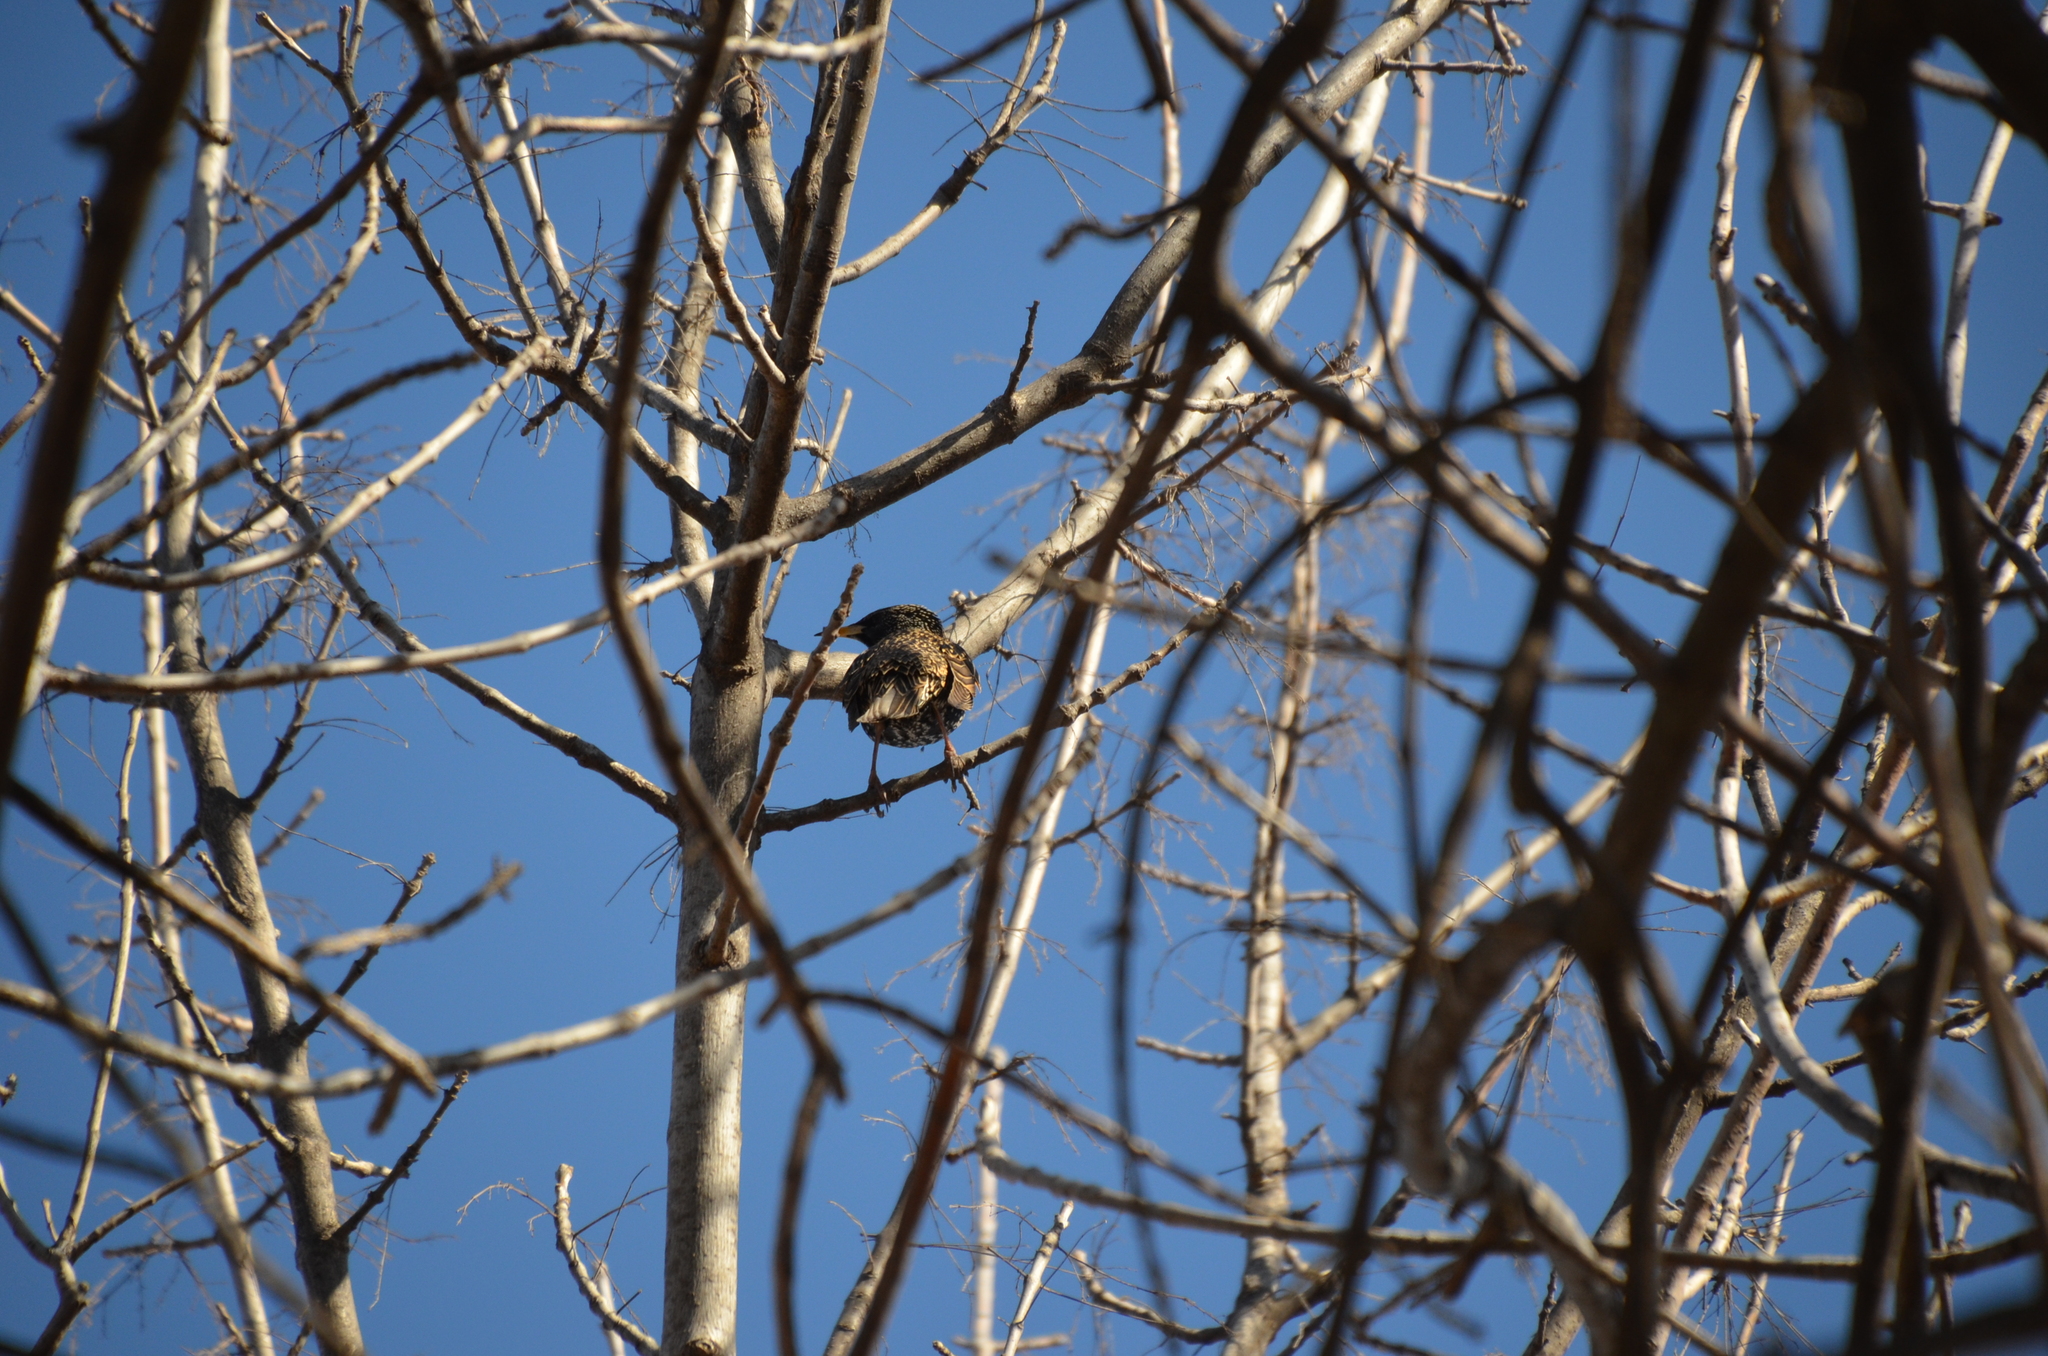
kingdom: Animalia
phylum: Chordata
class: Aves
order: Passeriformes
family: Sturnidae
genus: Sturnus
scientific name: Sturnus vulgaris
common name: Common starling
